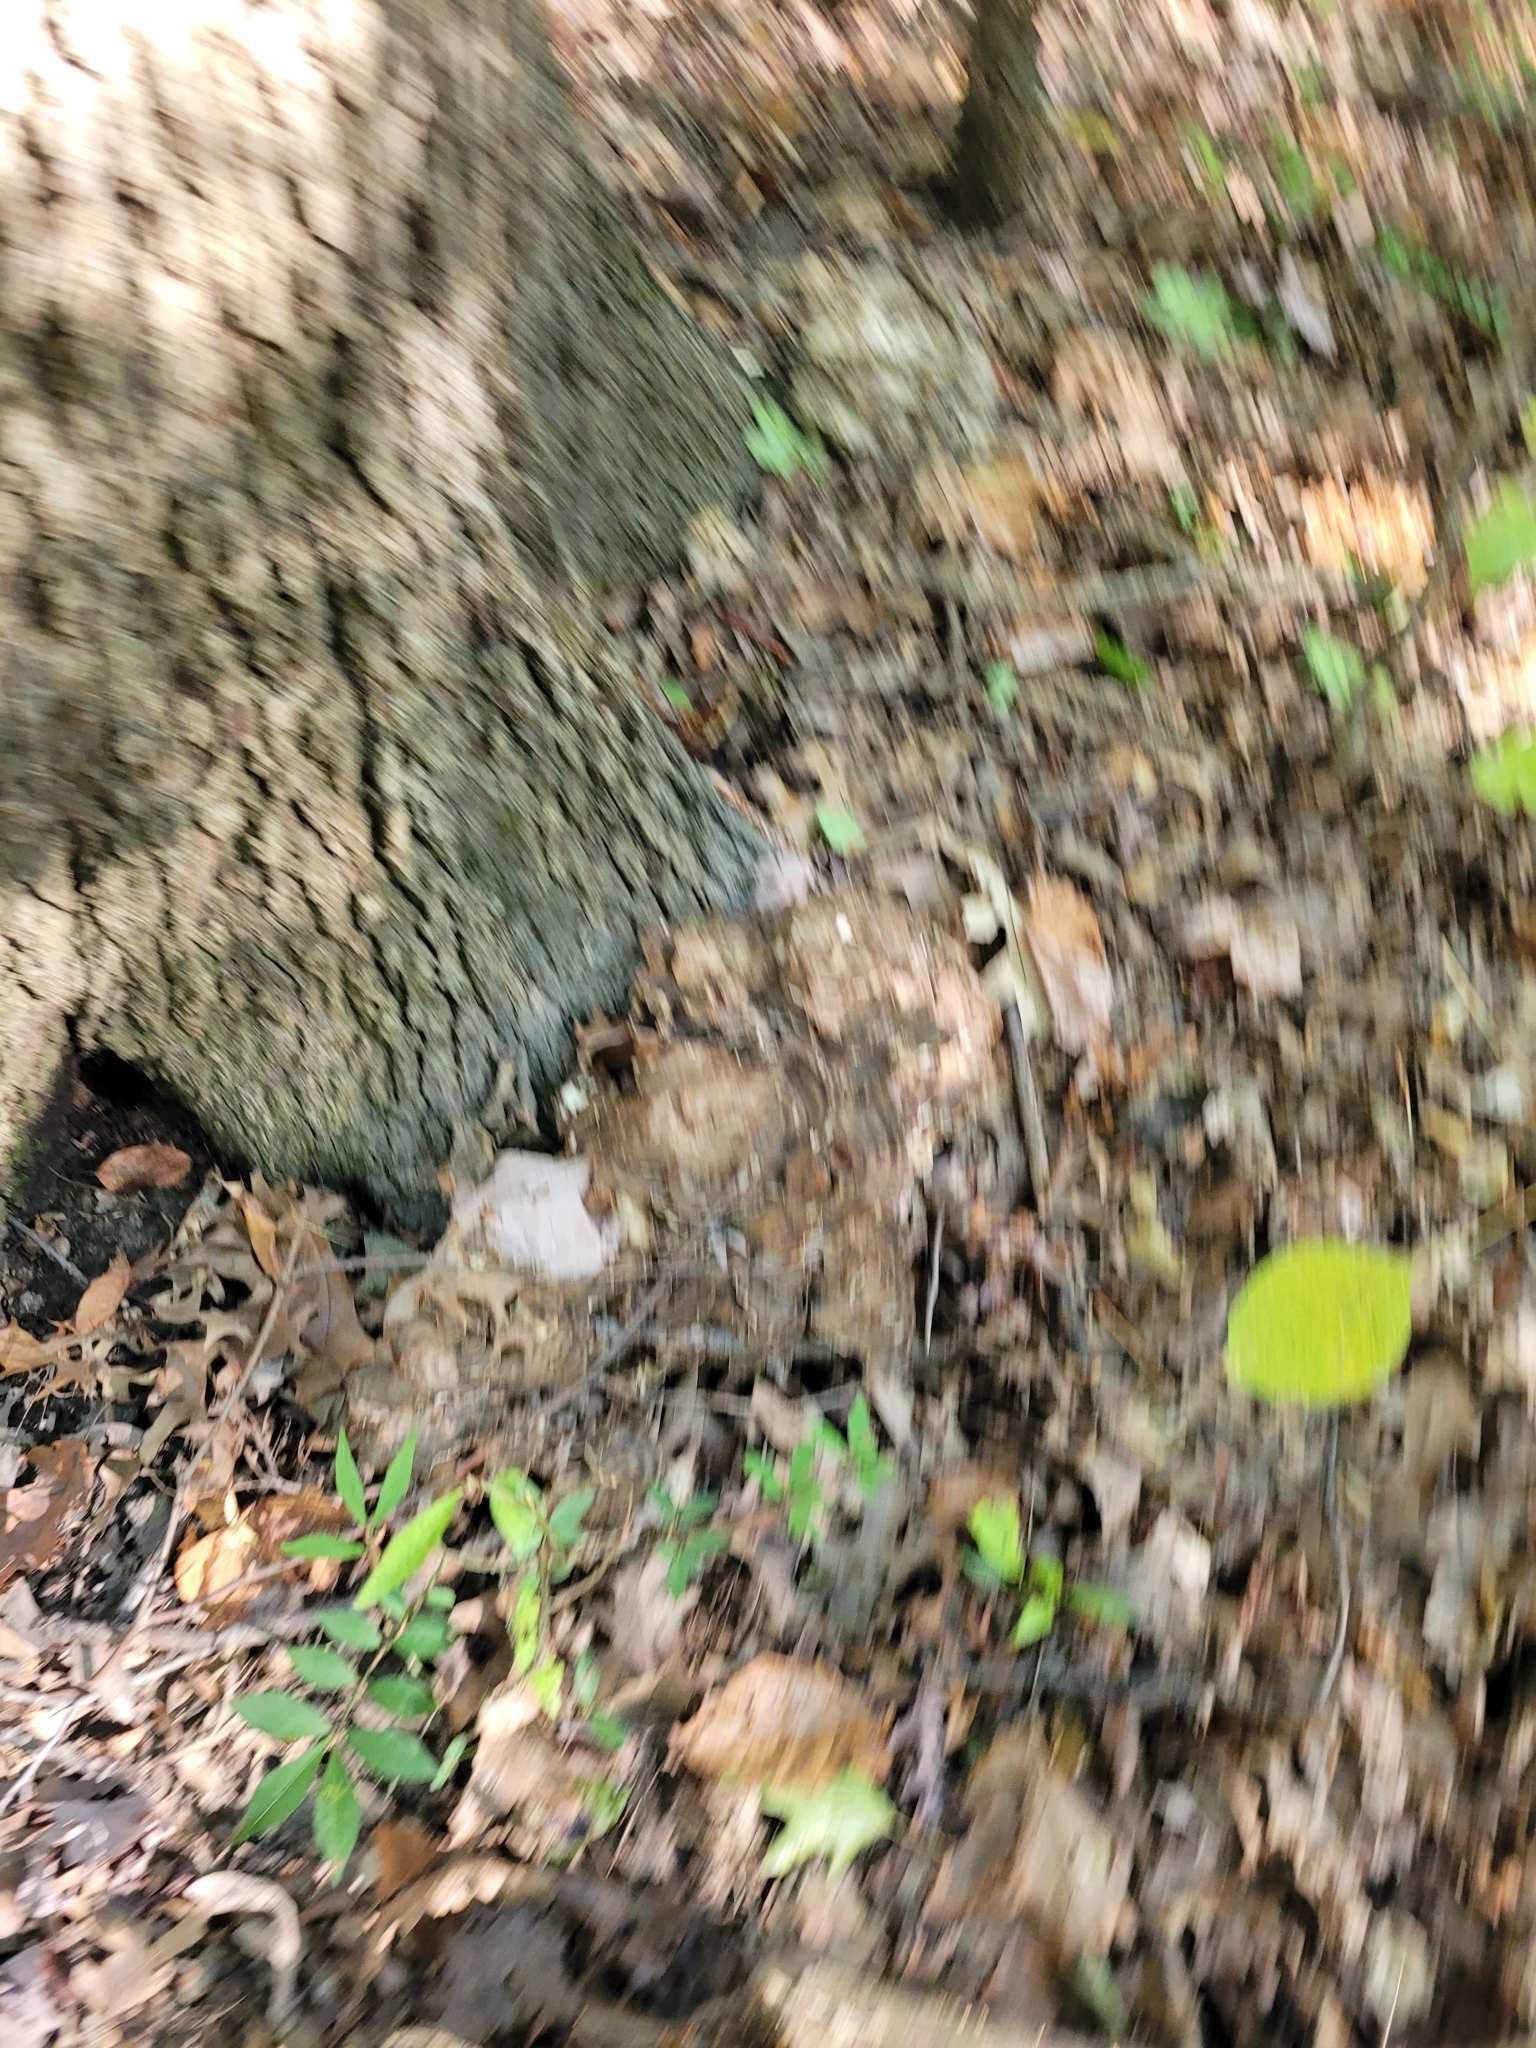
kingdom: Fungi
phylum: Basidiomycota
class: Agaricomycetes
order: Polyporales
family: Grifolaceae
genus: Grifola
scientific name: Grifola frondosa
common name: Hen of the woods
